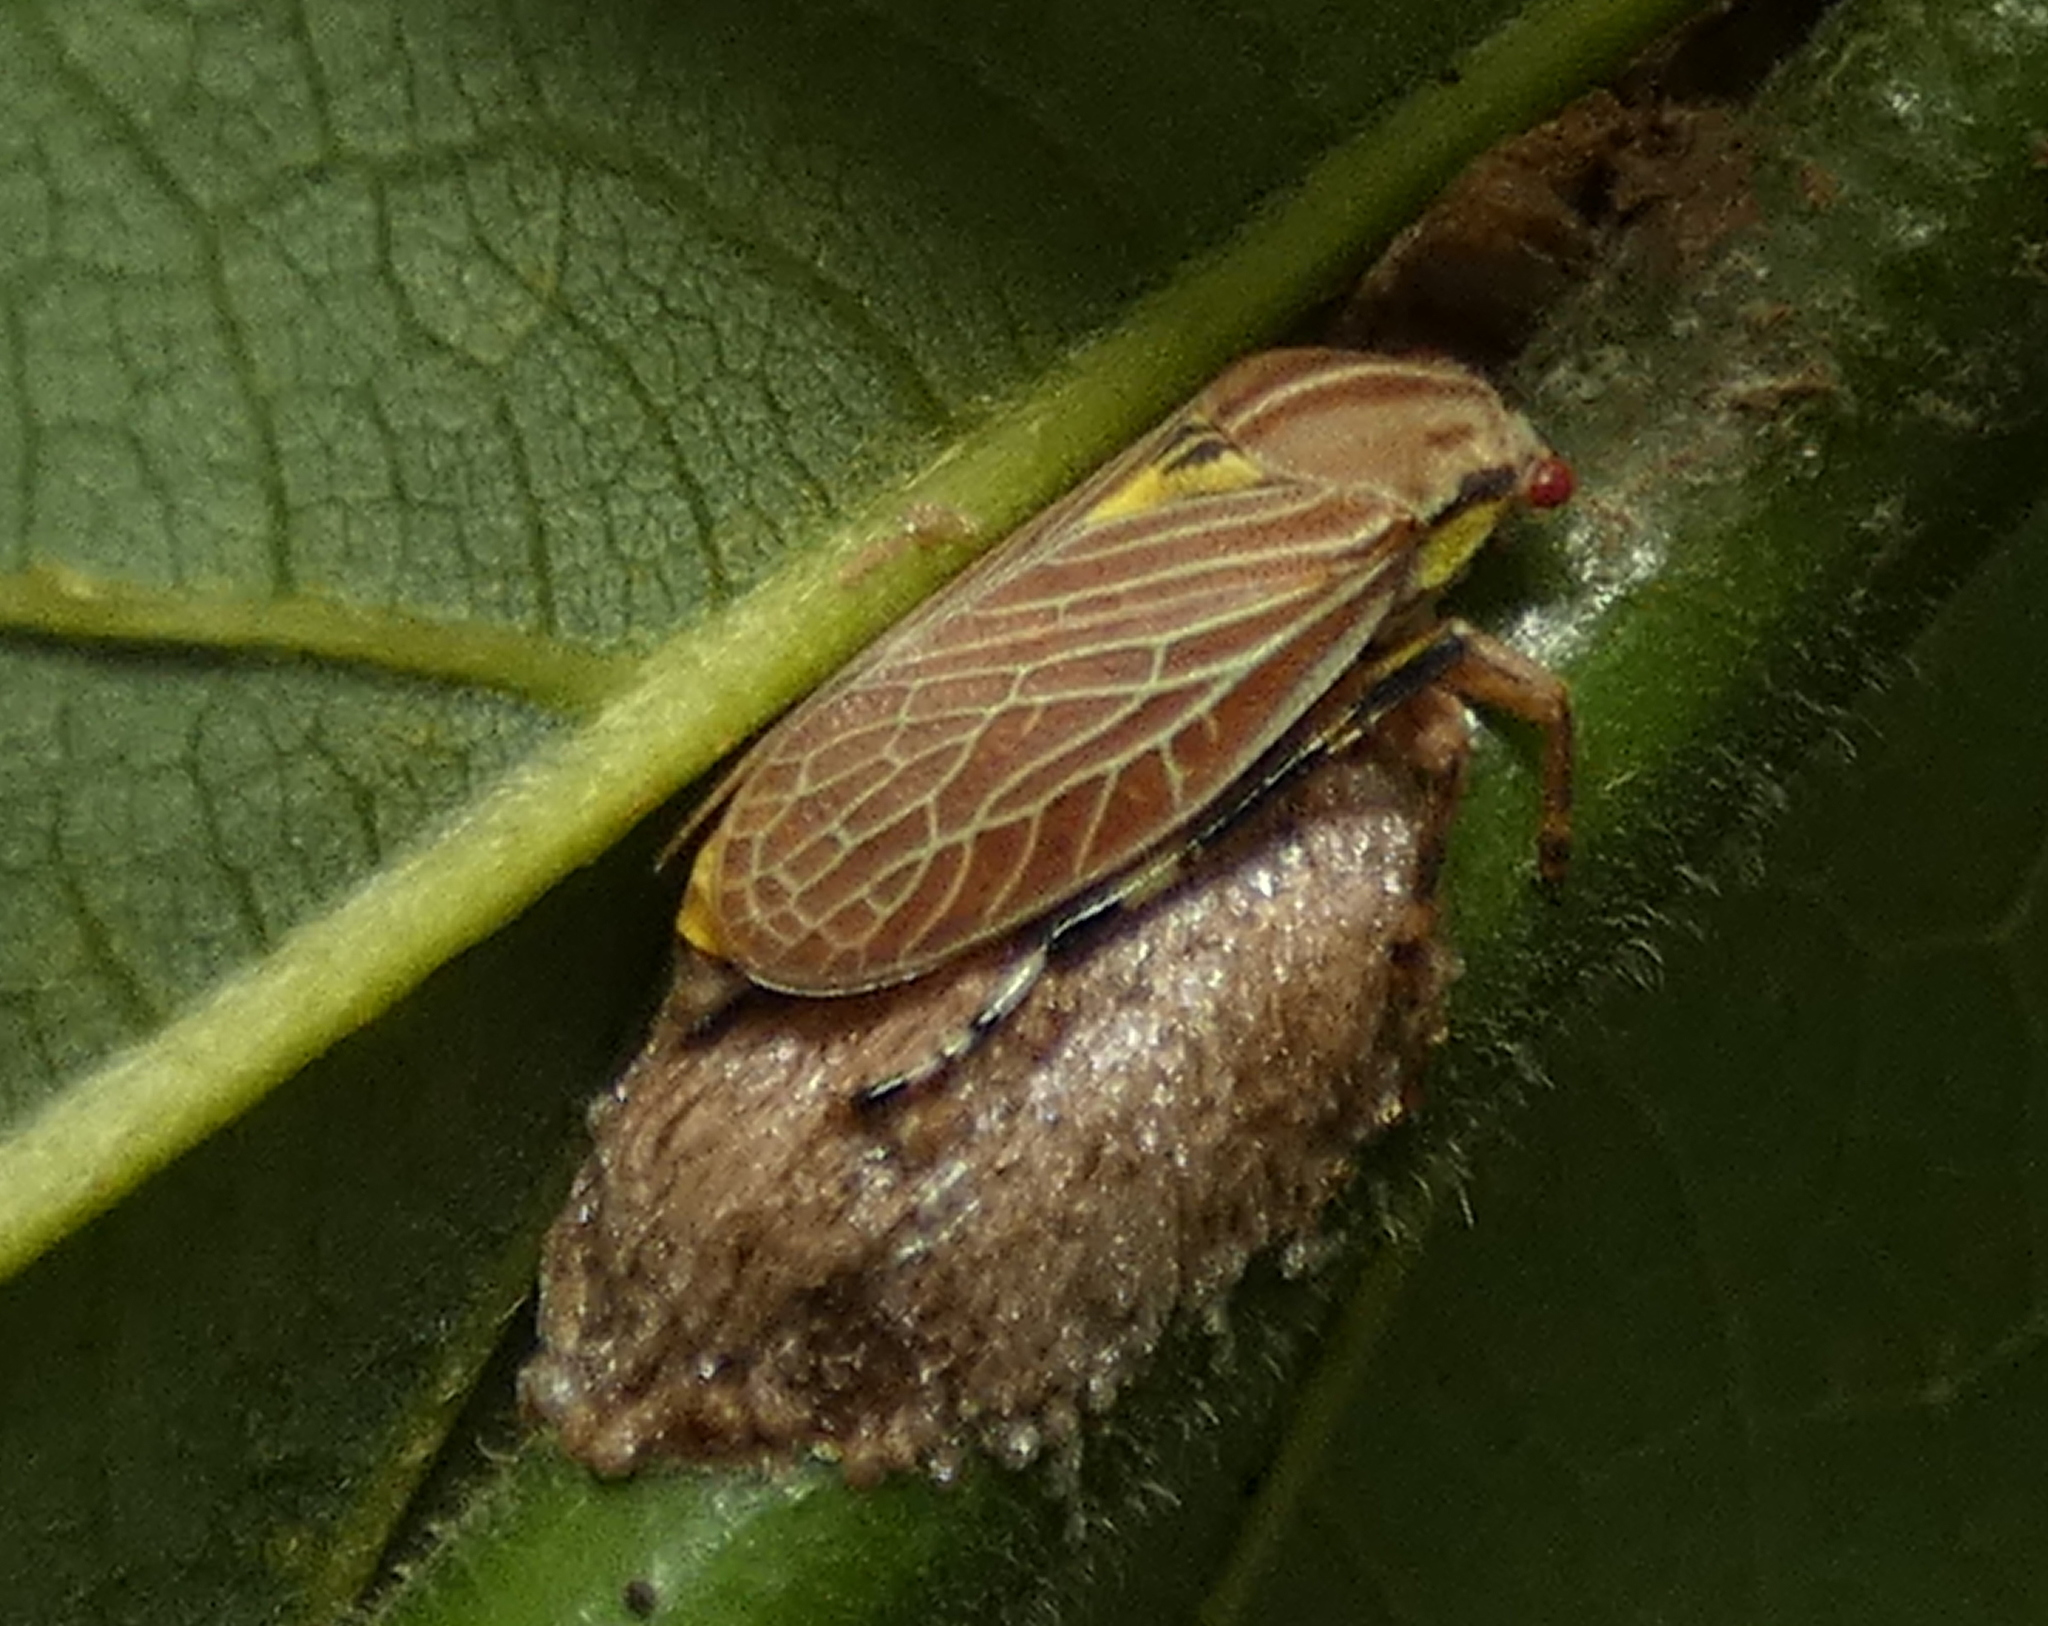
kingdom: Animalia
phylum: Arthropoda
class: Insecta
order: Hemiptera
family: Aetalionidae
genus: Aetalion
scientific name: Aetalion reticulatum
